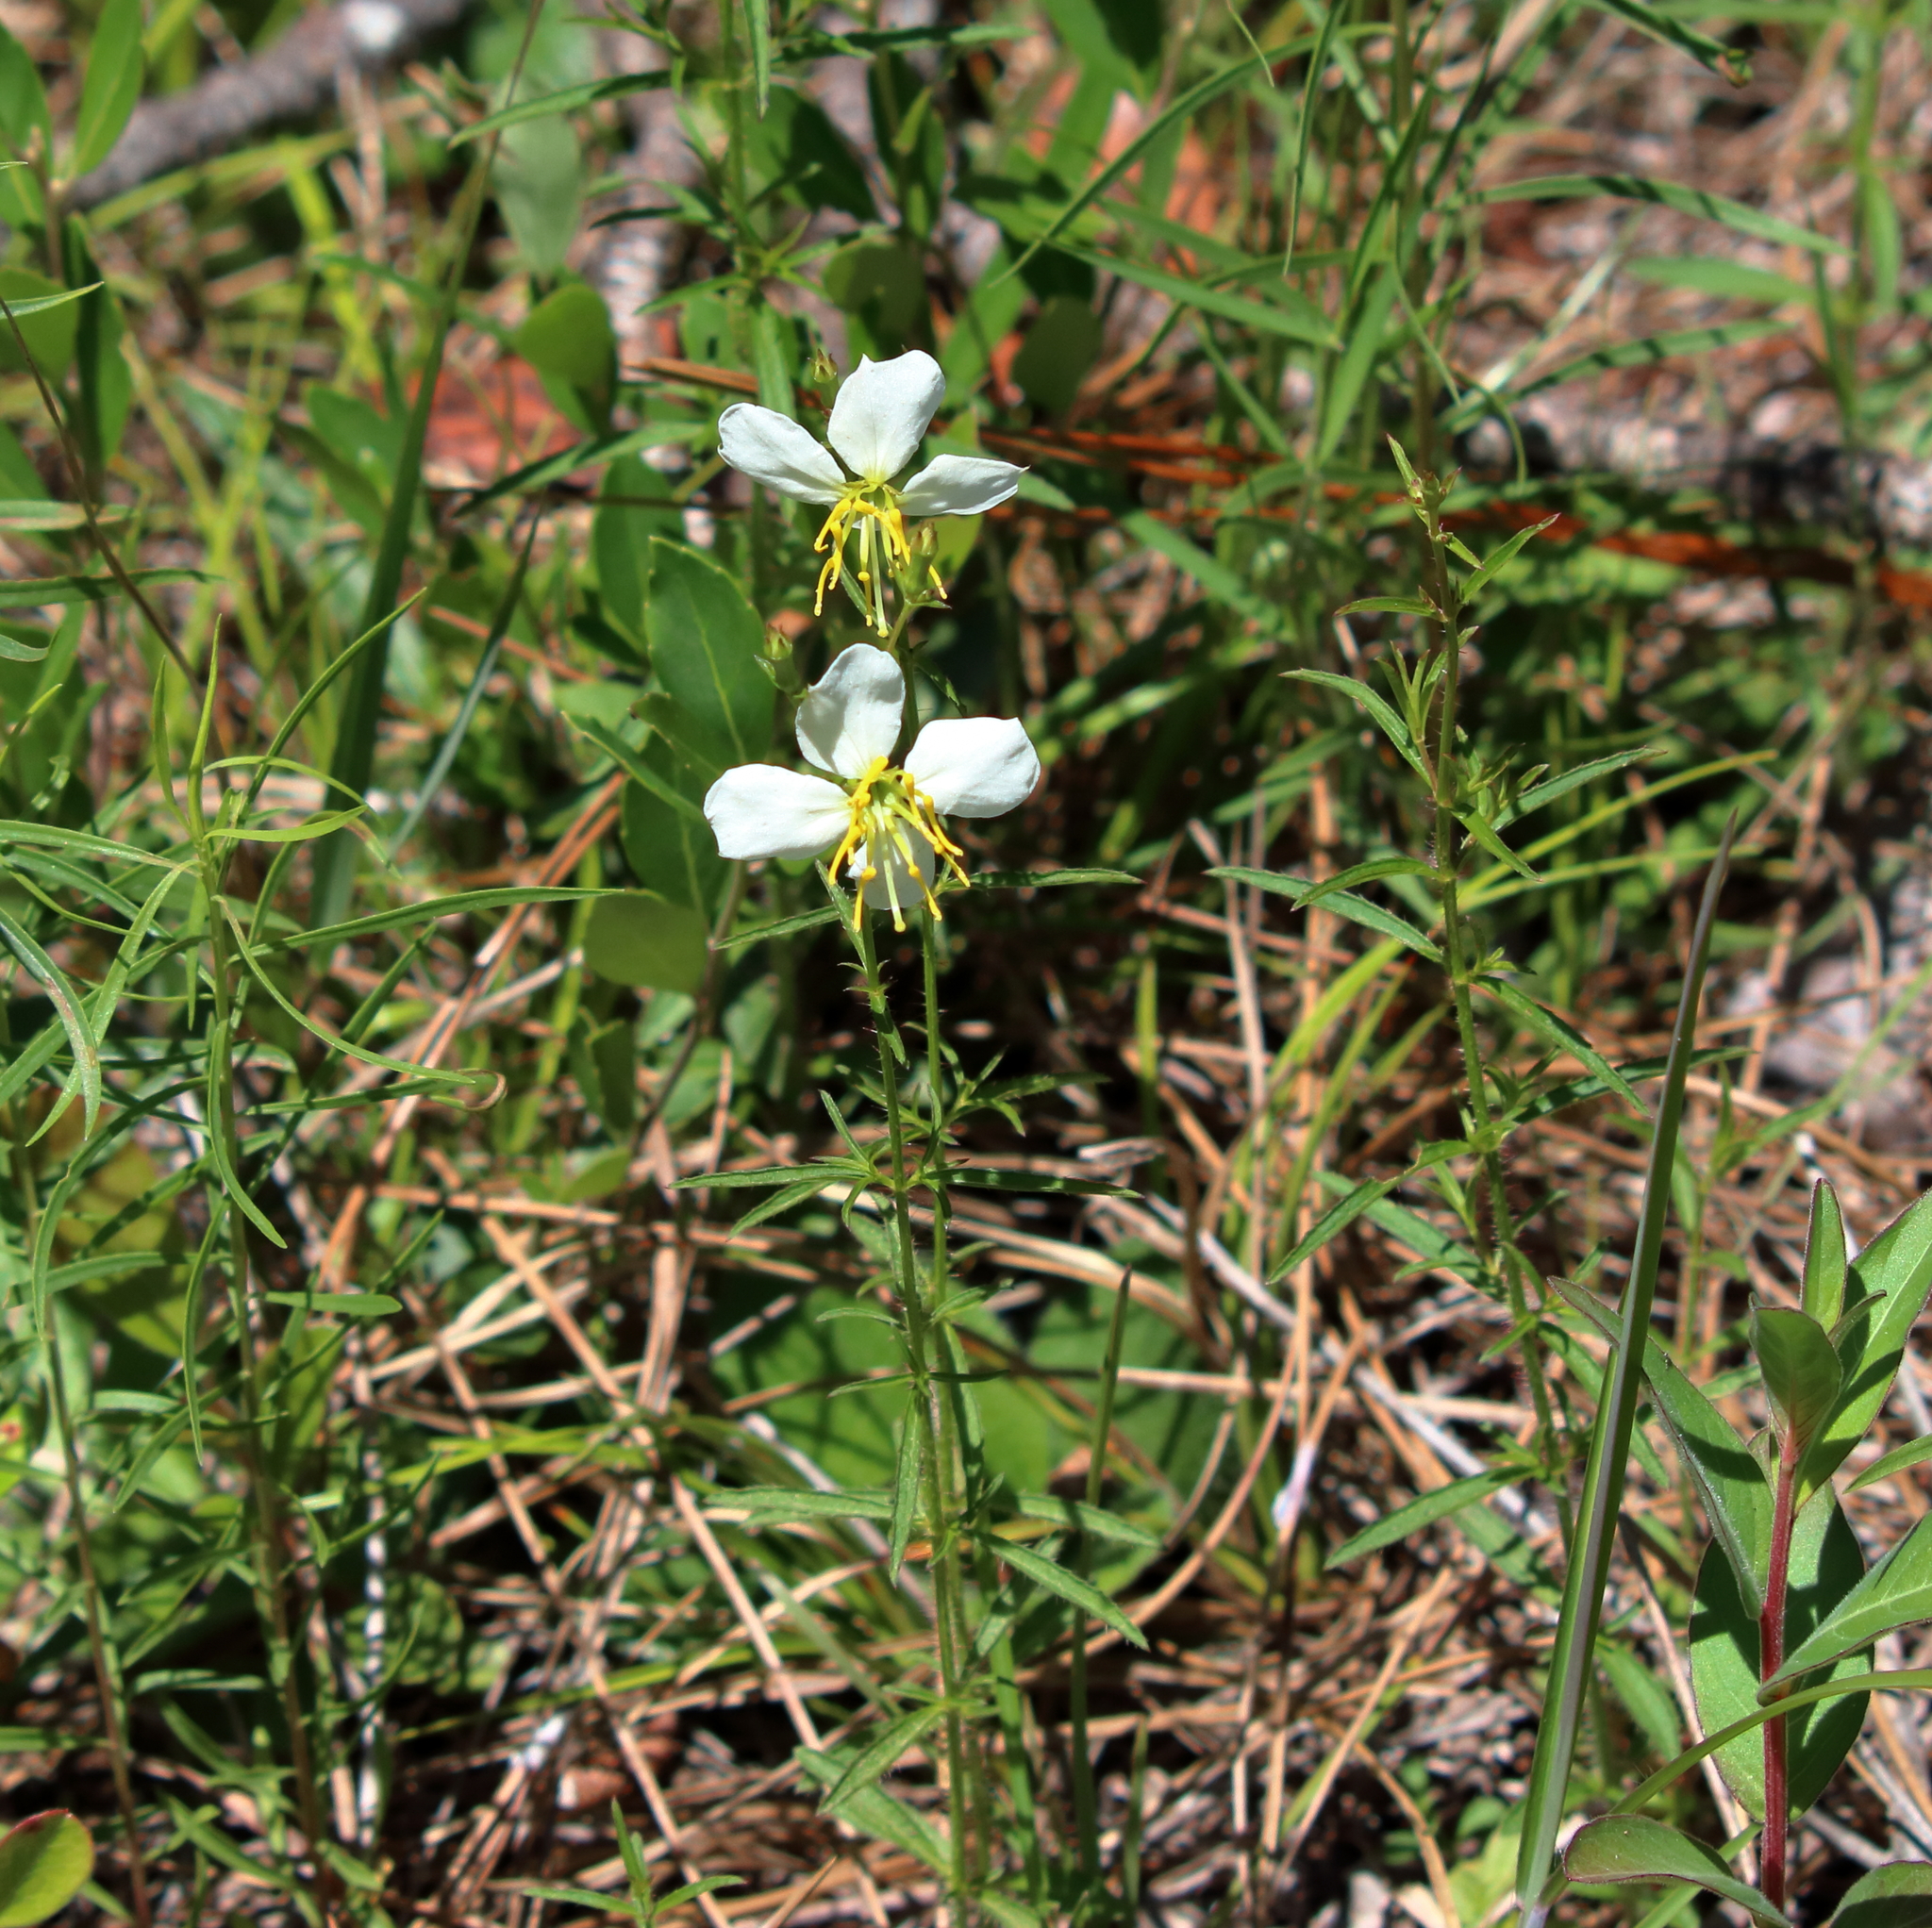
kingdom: Plantae
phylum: Tracheophyta
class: Magnoliopsida
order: Myrtales
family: Melastomataceae
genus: Rhexia
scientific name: Rhexia mariana
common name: Dull meadow-pitcher
